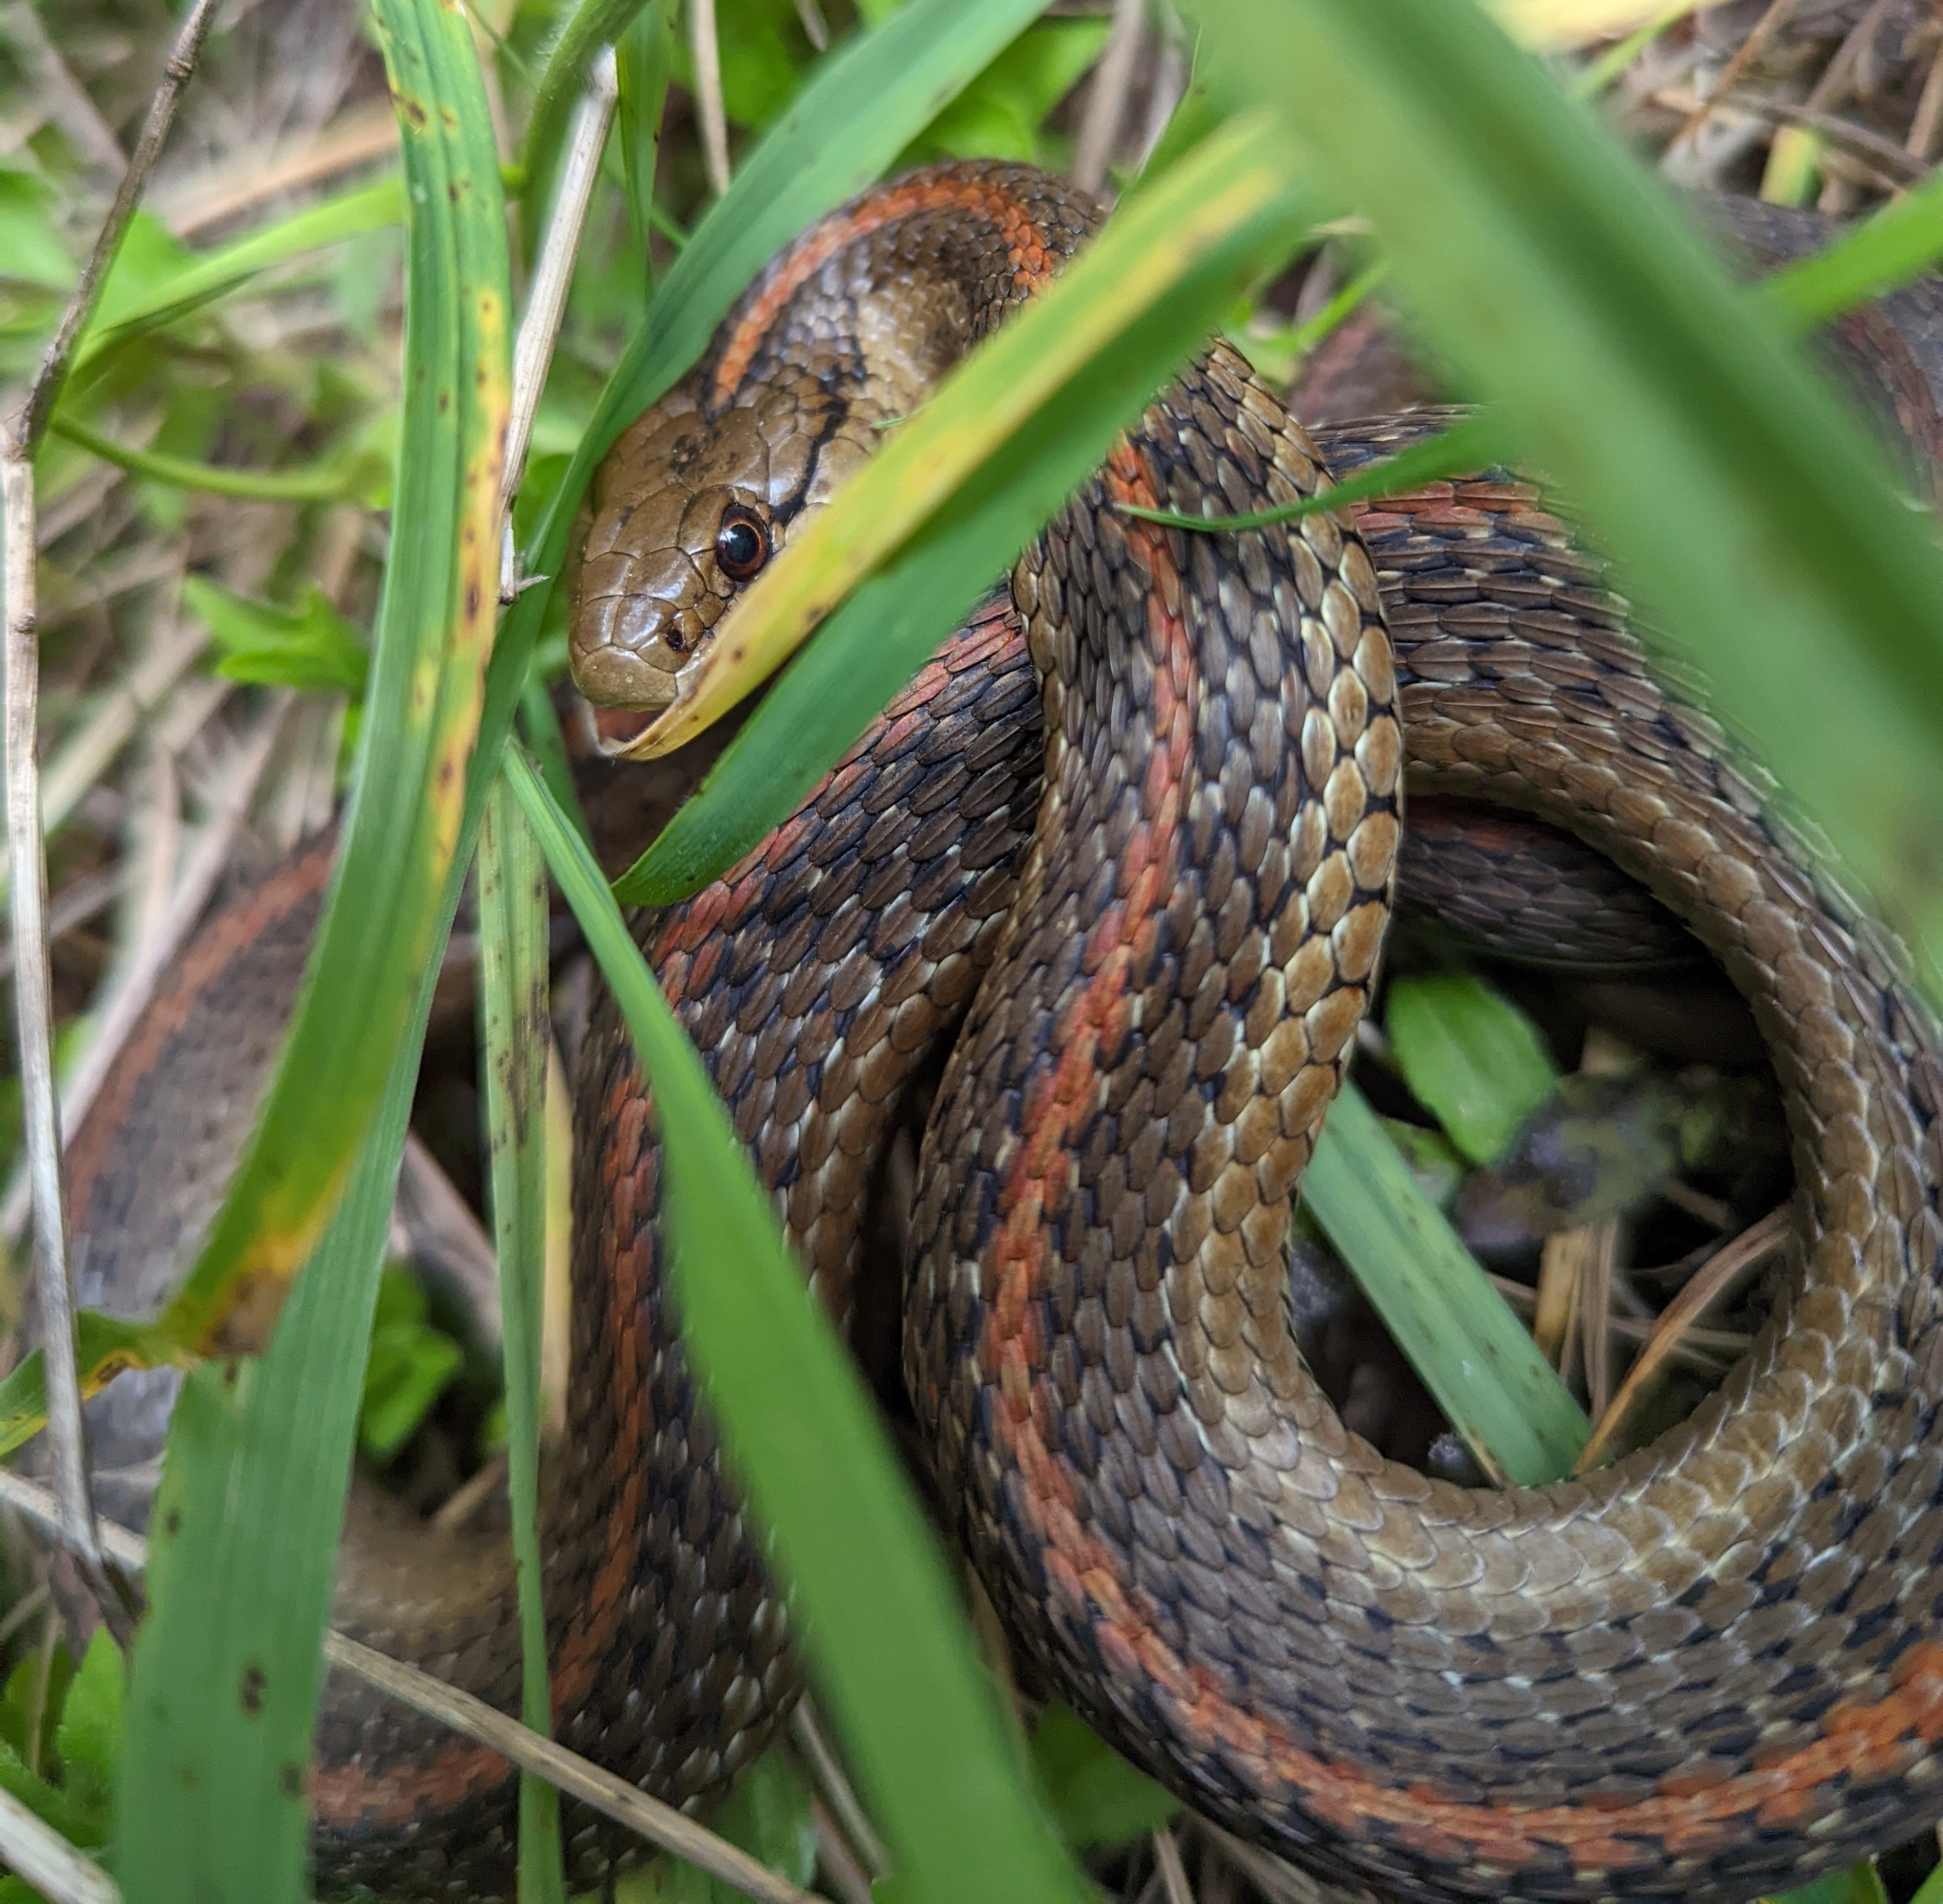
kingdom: Animalia
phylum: Chordata
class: Squamata
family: Colubridae
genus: Thamnophis
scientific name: Thamnophis ordinoides
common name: Northwestern garter snake
